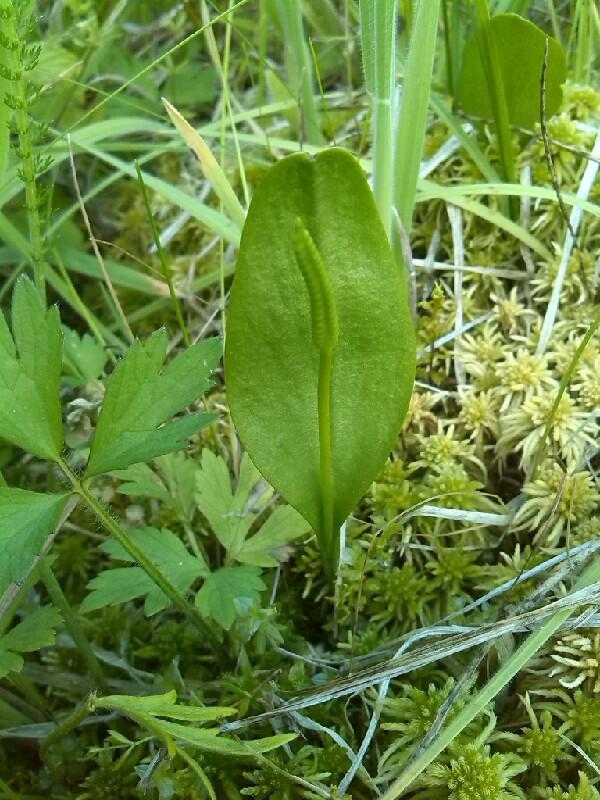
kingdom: Plantae
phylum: Tracheophyta
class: Polypodiopsida
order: Ophioglossales
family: Ophioglossaceae
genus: Ophioglossum
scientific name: Ophioglossum vulgatum
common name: Adder's-tongue
